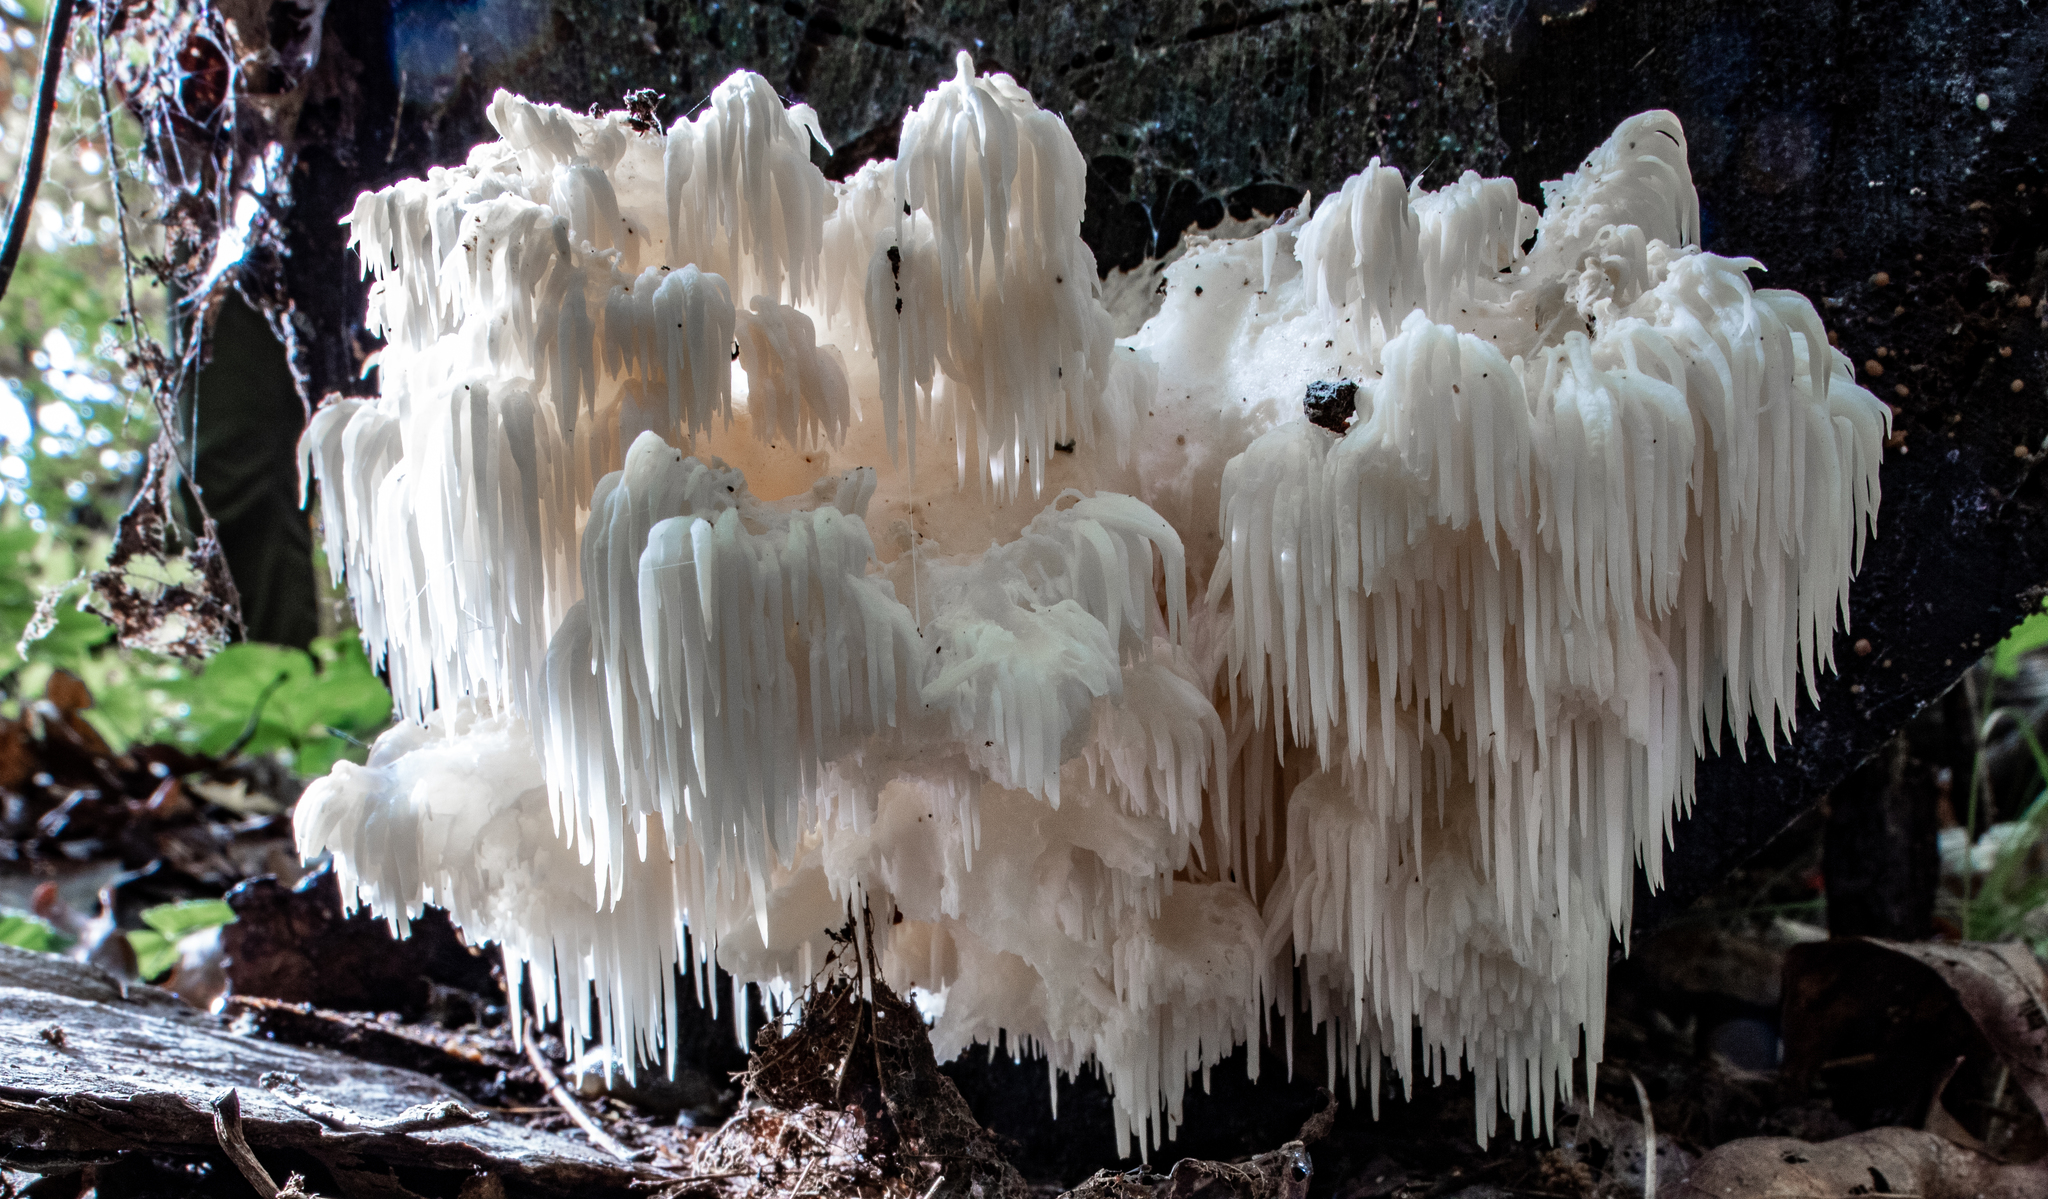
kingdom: Fungi
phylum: Basidiomycota
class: Agaricomycetes
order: Russulales
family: Hericiaceae
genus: Hericium
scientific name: Hericium americanum
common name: Bear's head tooth
